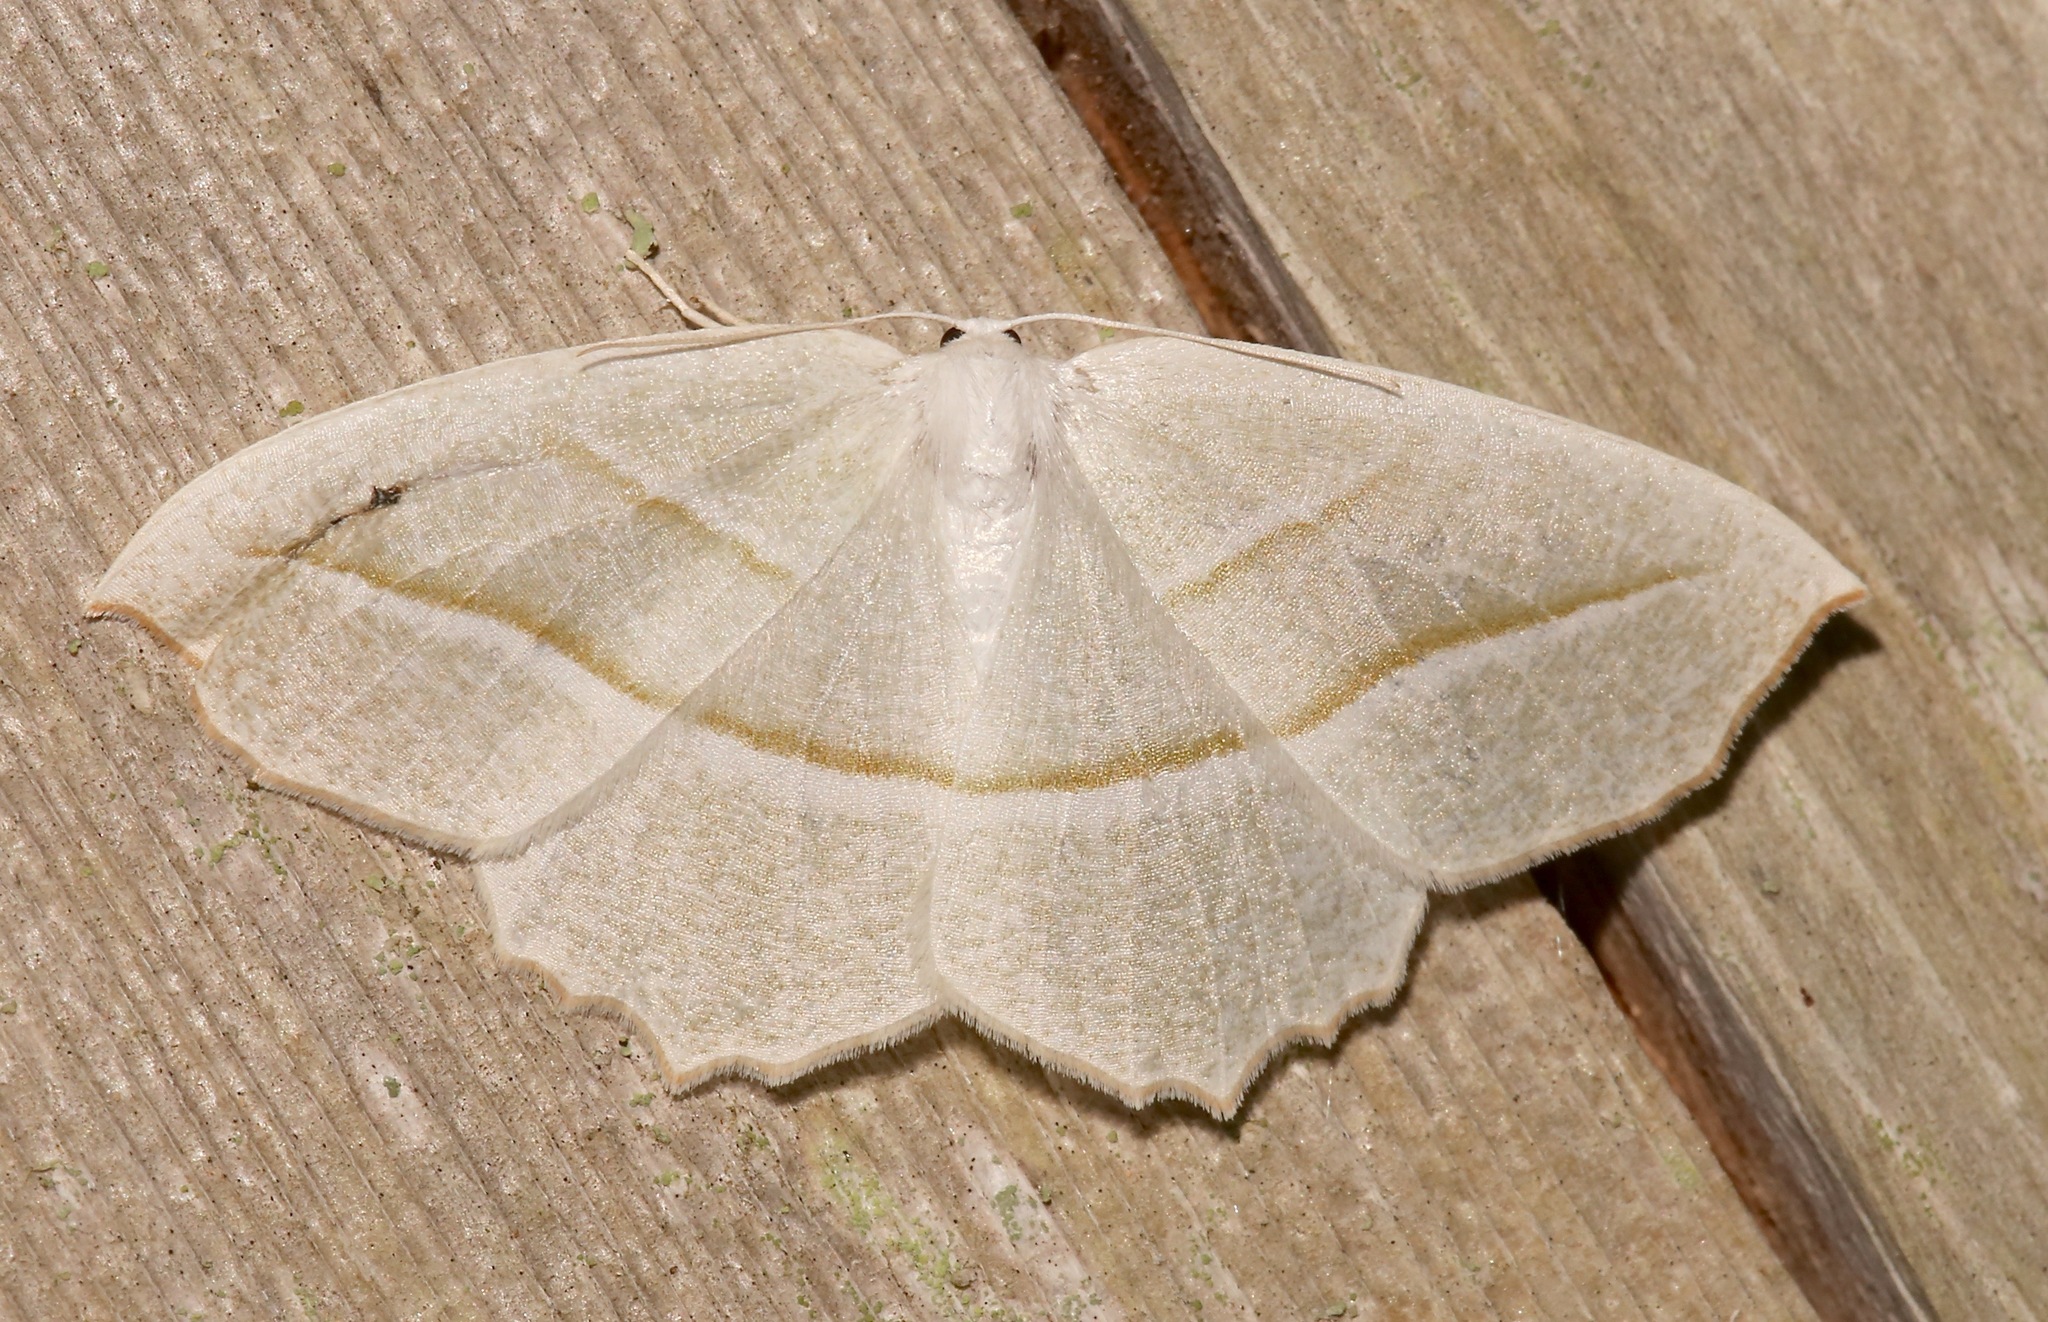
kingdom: Animalia
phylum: Arthropoda
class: Insecta
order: Lepidoptera
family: Geometridae
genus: Campaea
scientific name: Campaea perlata
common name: Fringed looper
